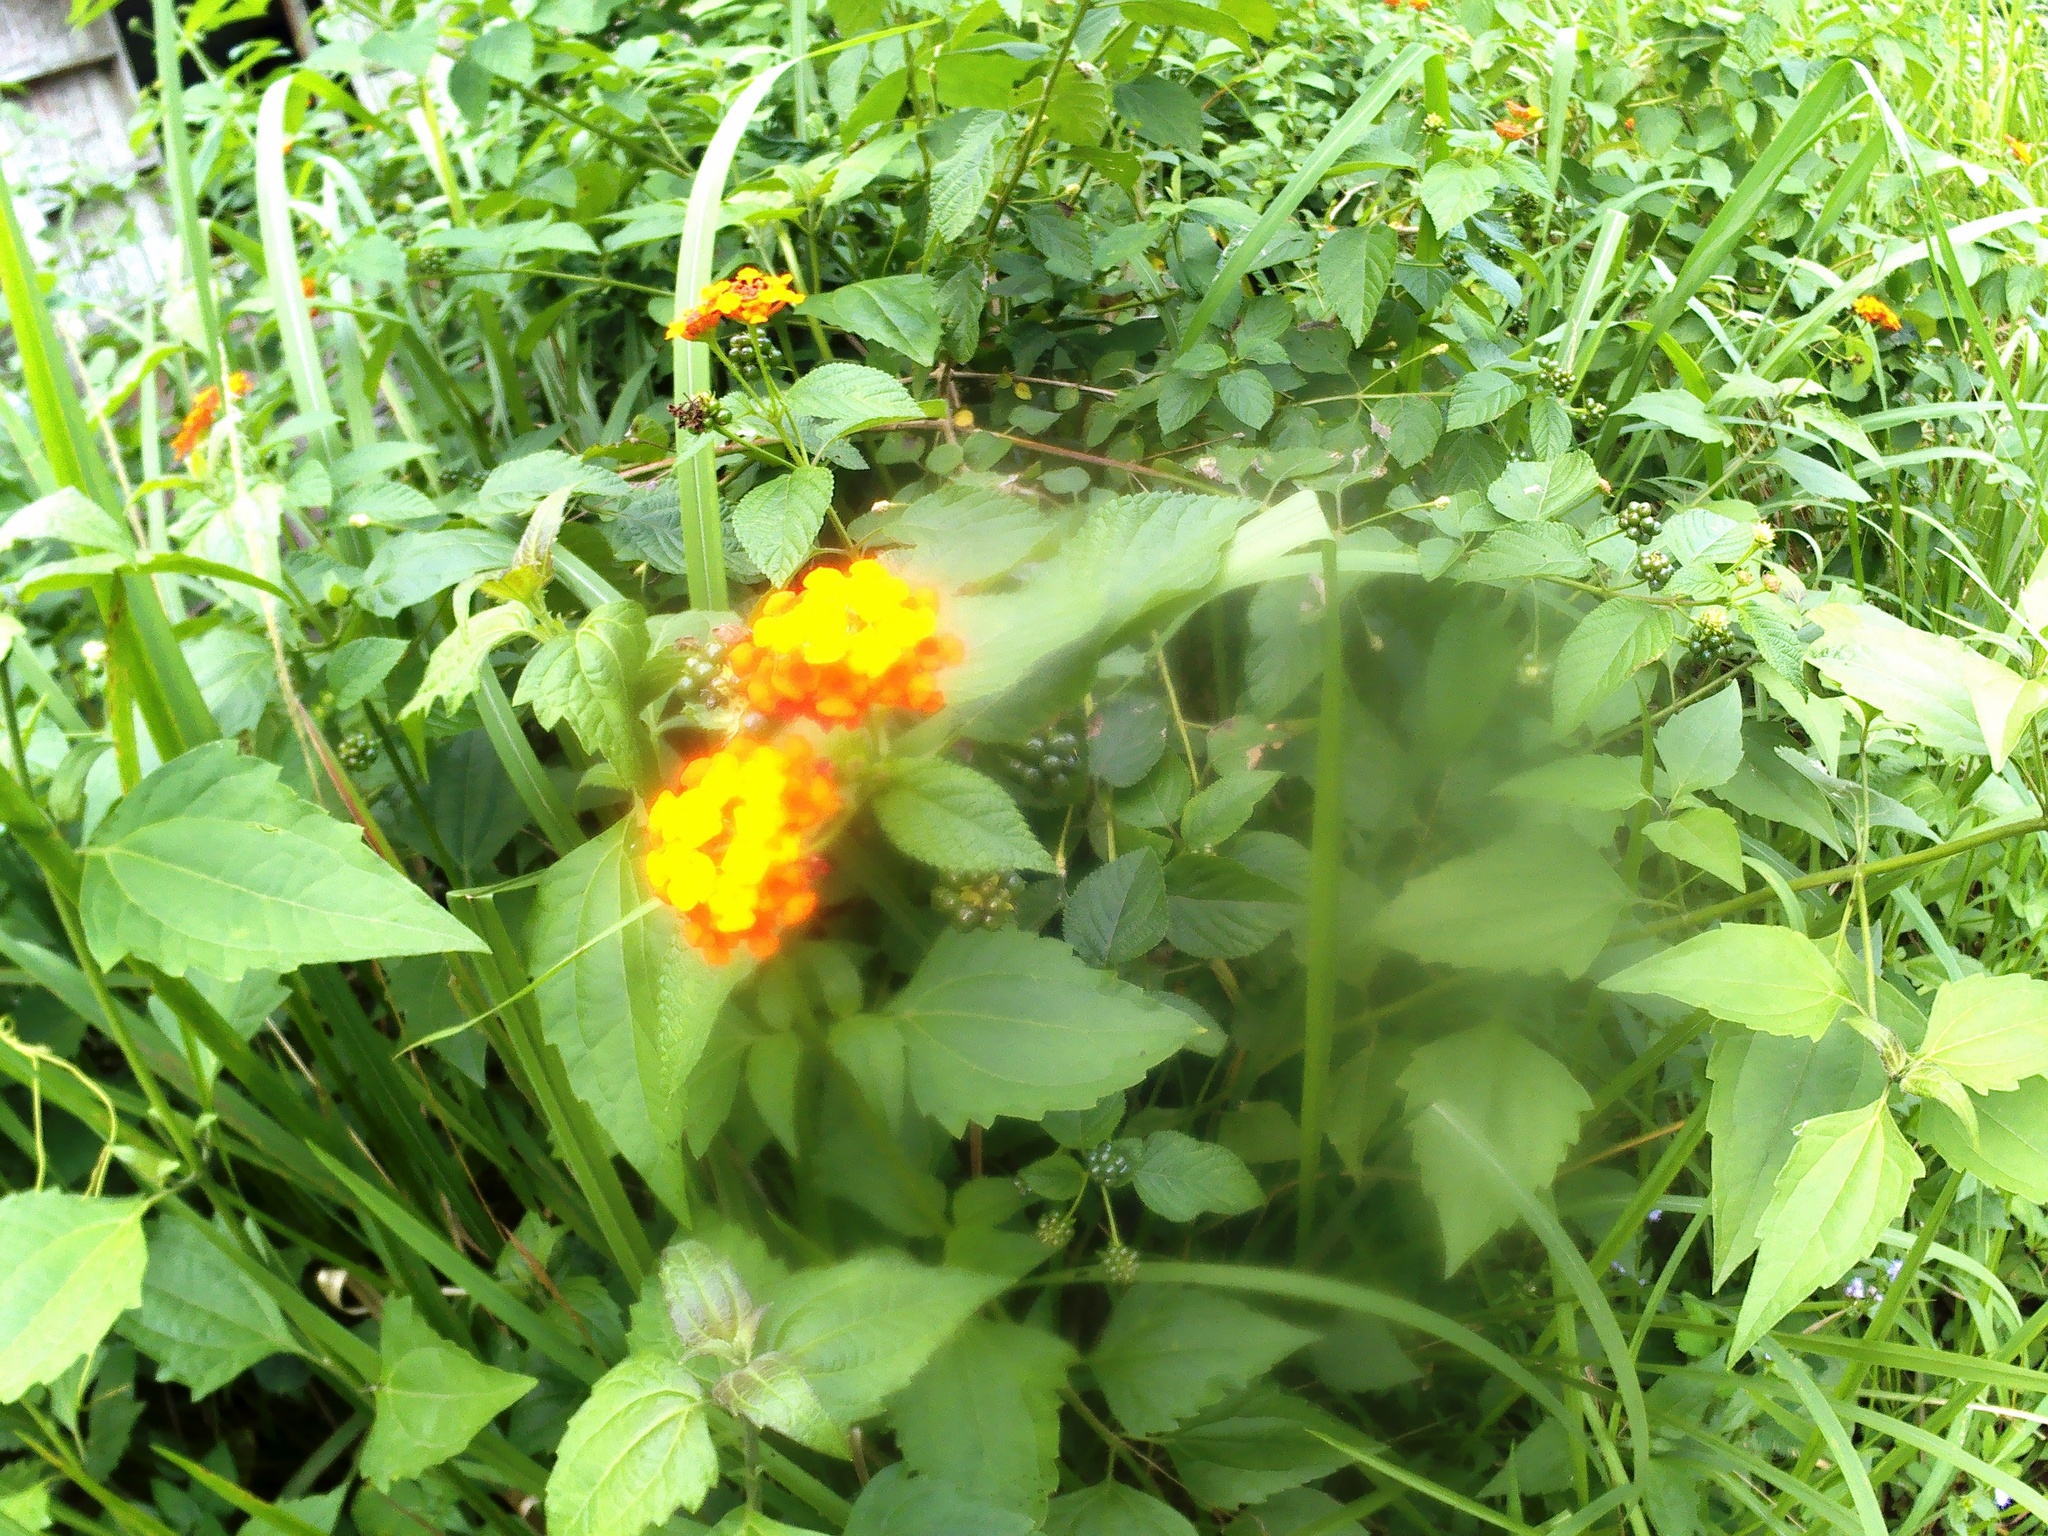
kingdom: Plantae
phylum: Tracheophyta
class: Magnoliopsida
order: Lamiales
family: Verbenaceae
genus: Lantana
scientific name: Lantana camara
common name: Lantana
